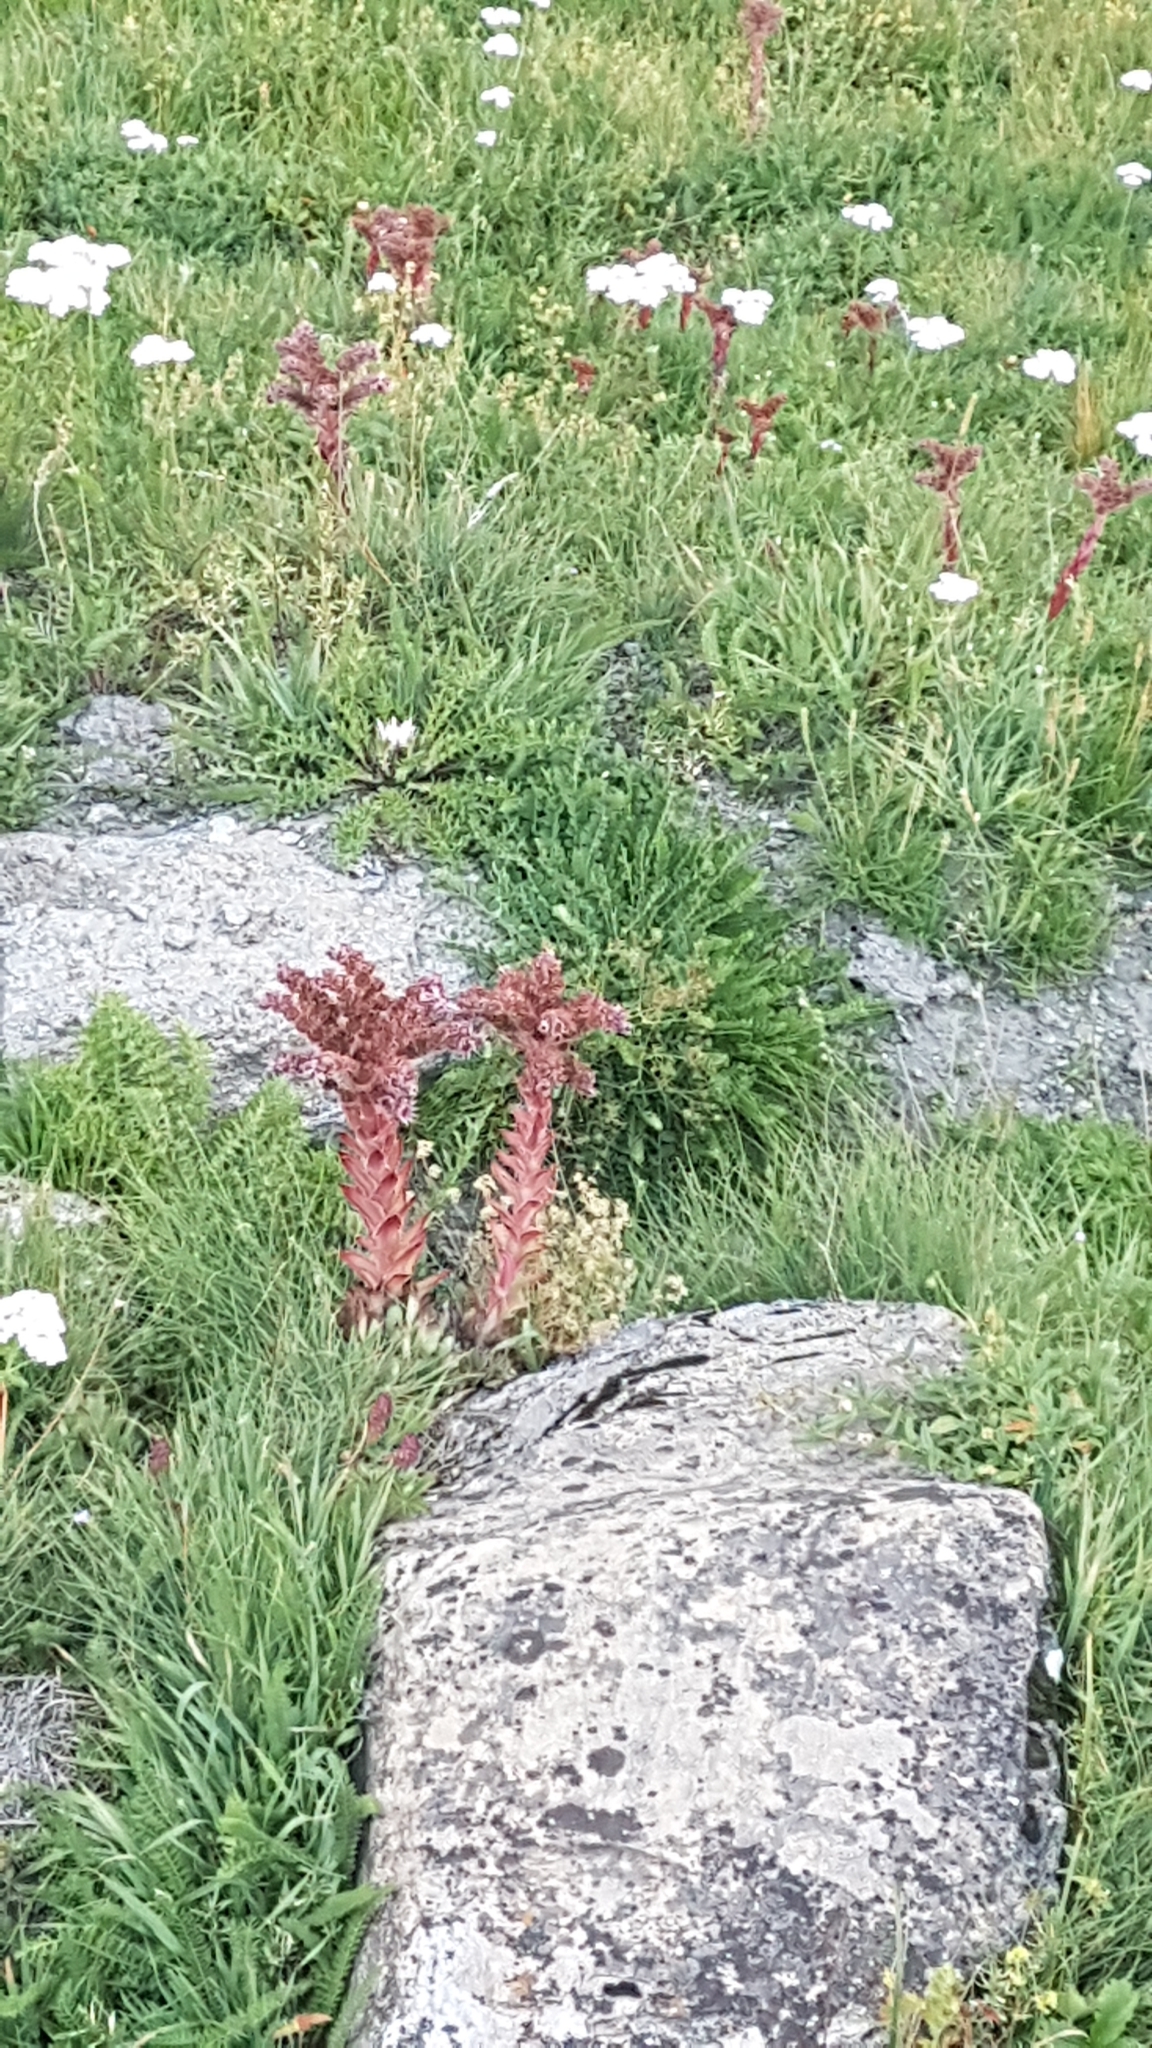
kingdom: Plantae
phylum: Tracheophyta
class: Magnoliopsida
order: Saxifragales
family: Crassulaceae
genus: Sempervivum
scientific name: Sempervivum tectorum
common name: House-leek
